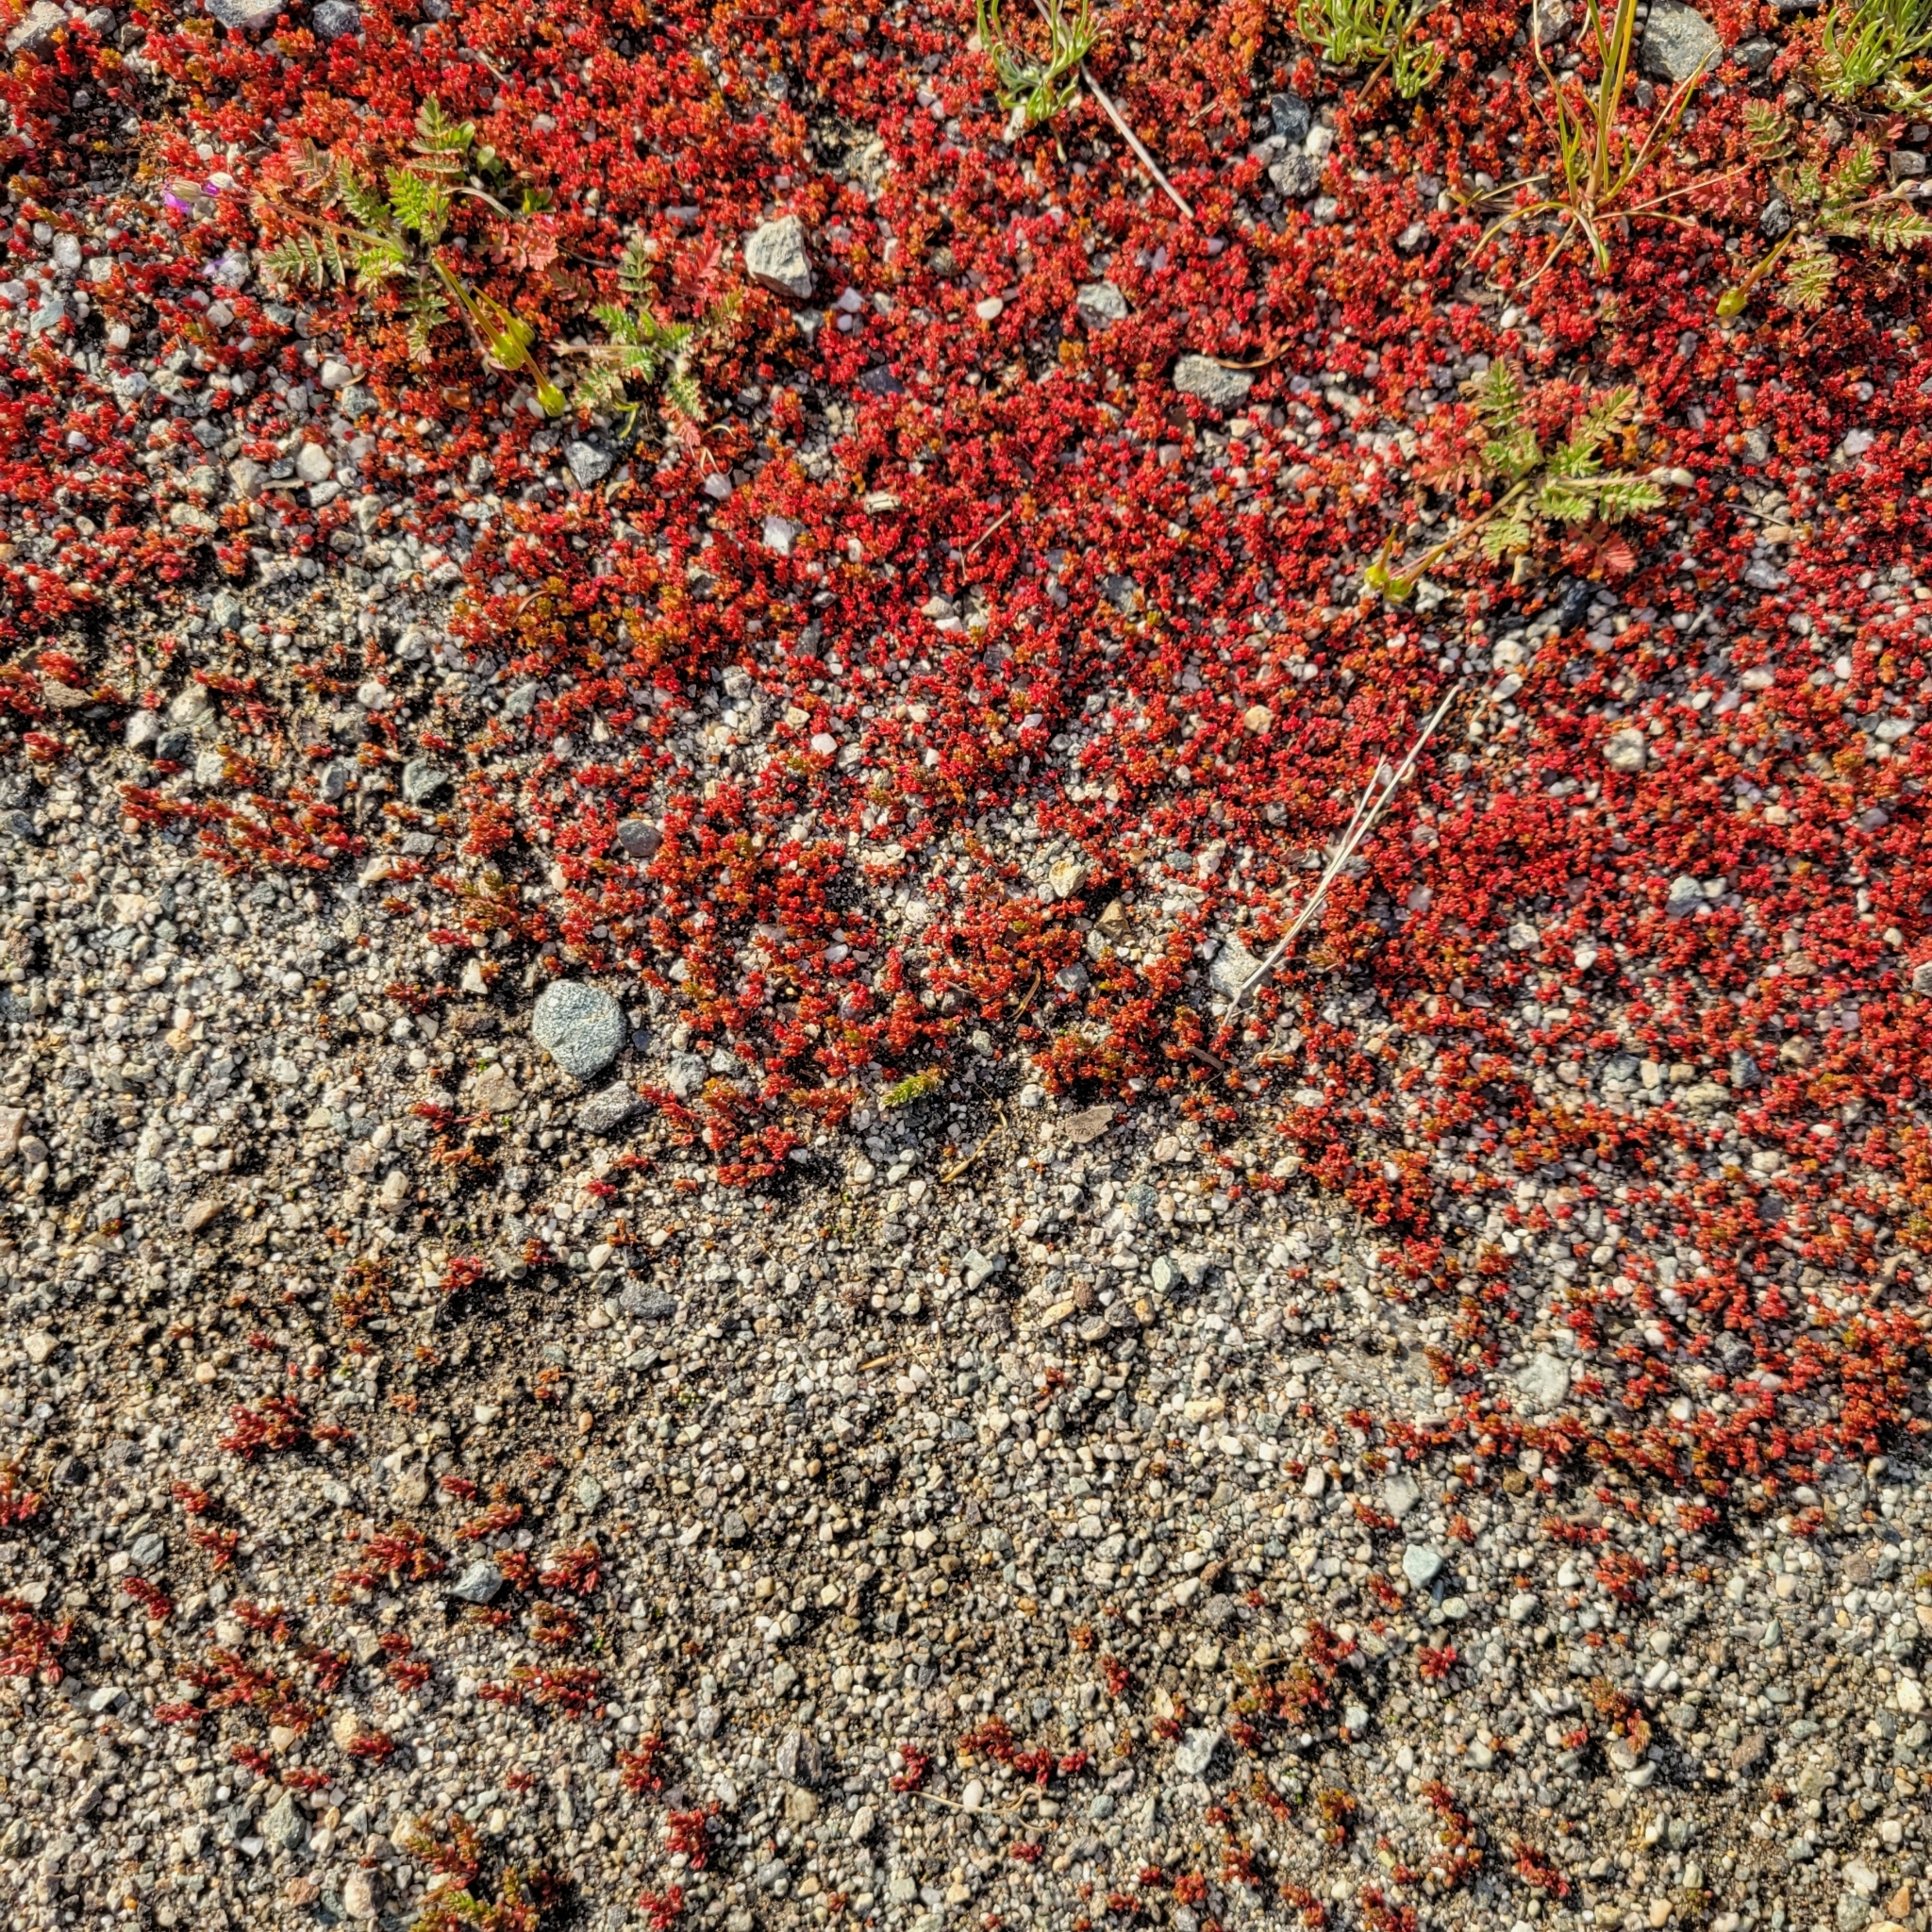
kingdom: Plantae
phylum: Tracheophyta
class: Magnoliopsida
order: Saxifragales
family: Crassulaceae
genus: Crassula
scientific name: Crassula connata
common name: Erect pygmyweed
